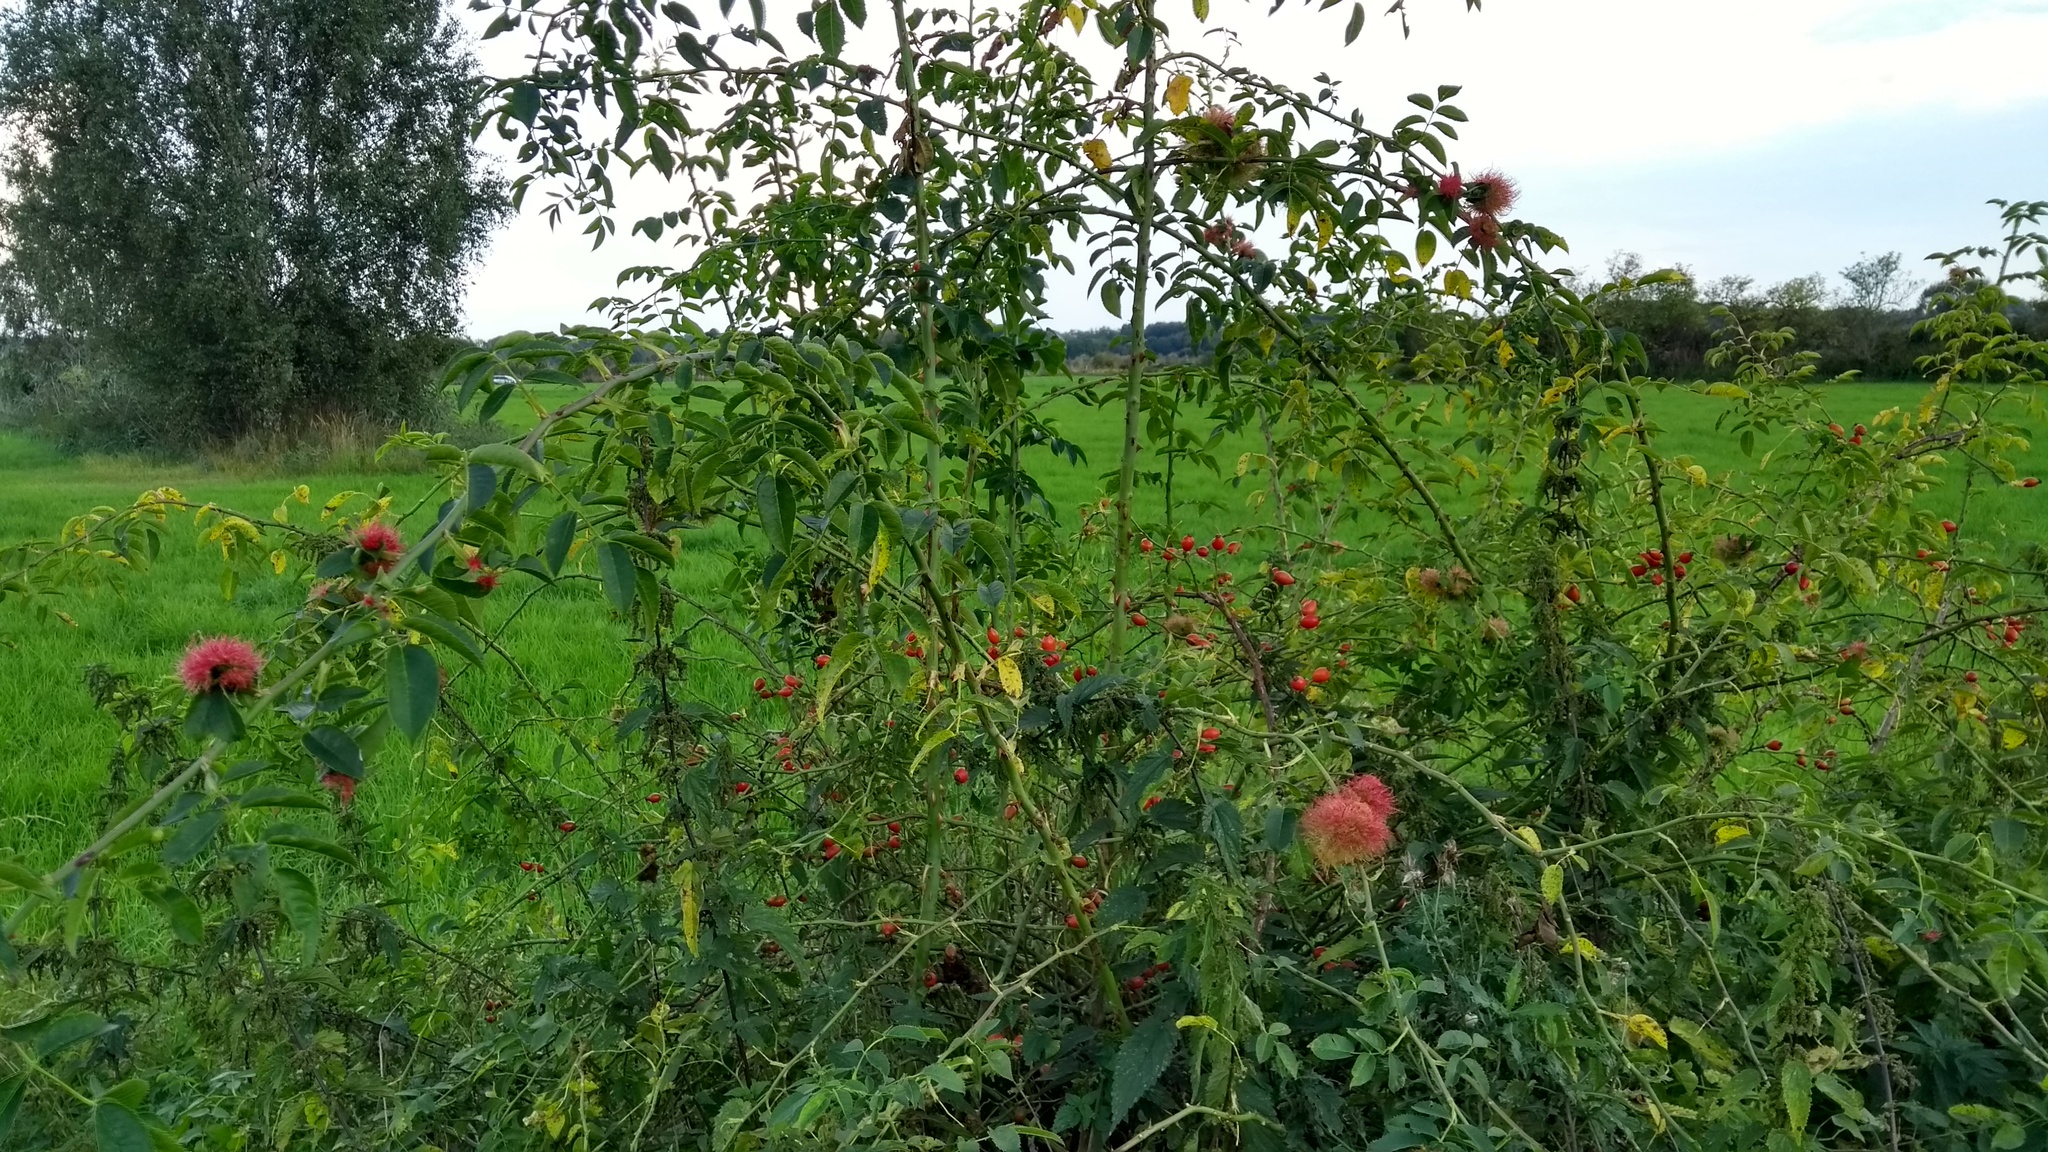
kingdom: Animalia
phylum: Arthropoda
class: Insecta
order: Hymenoptera
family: Cynipidae
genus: Diplolepis
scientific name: Diplolepis rosae
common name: Bedeguar gall
